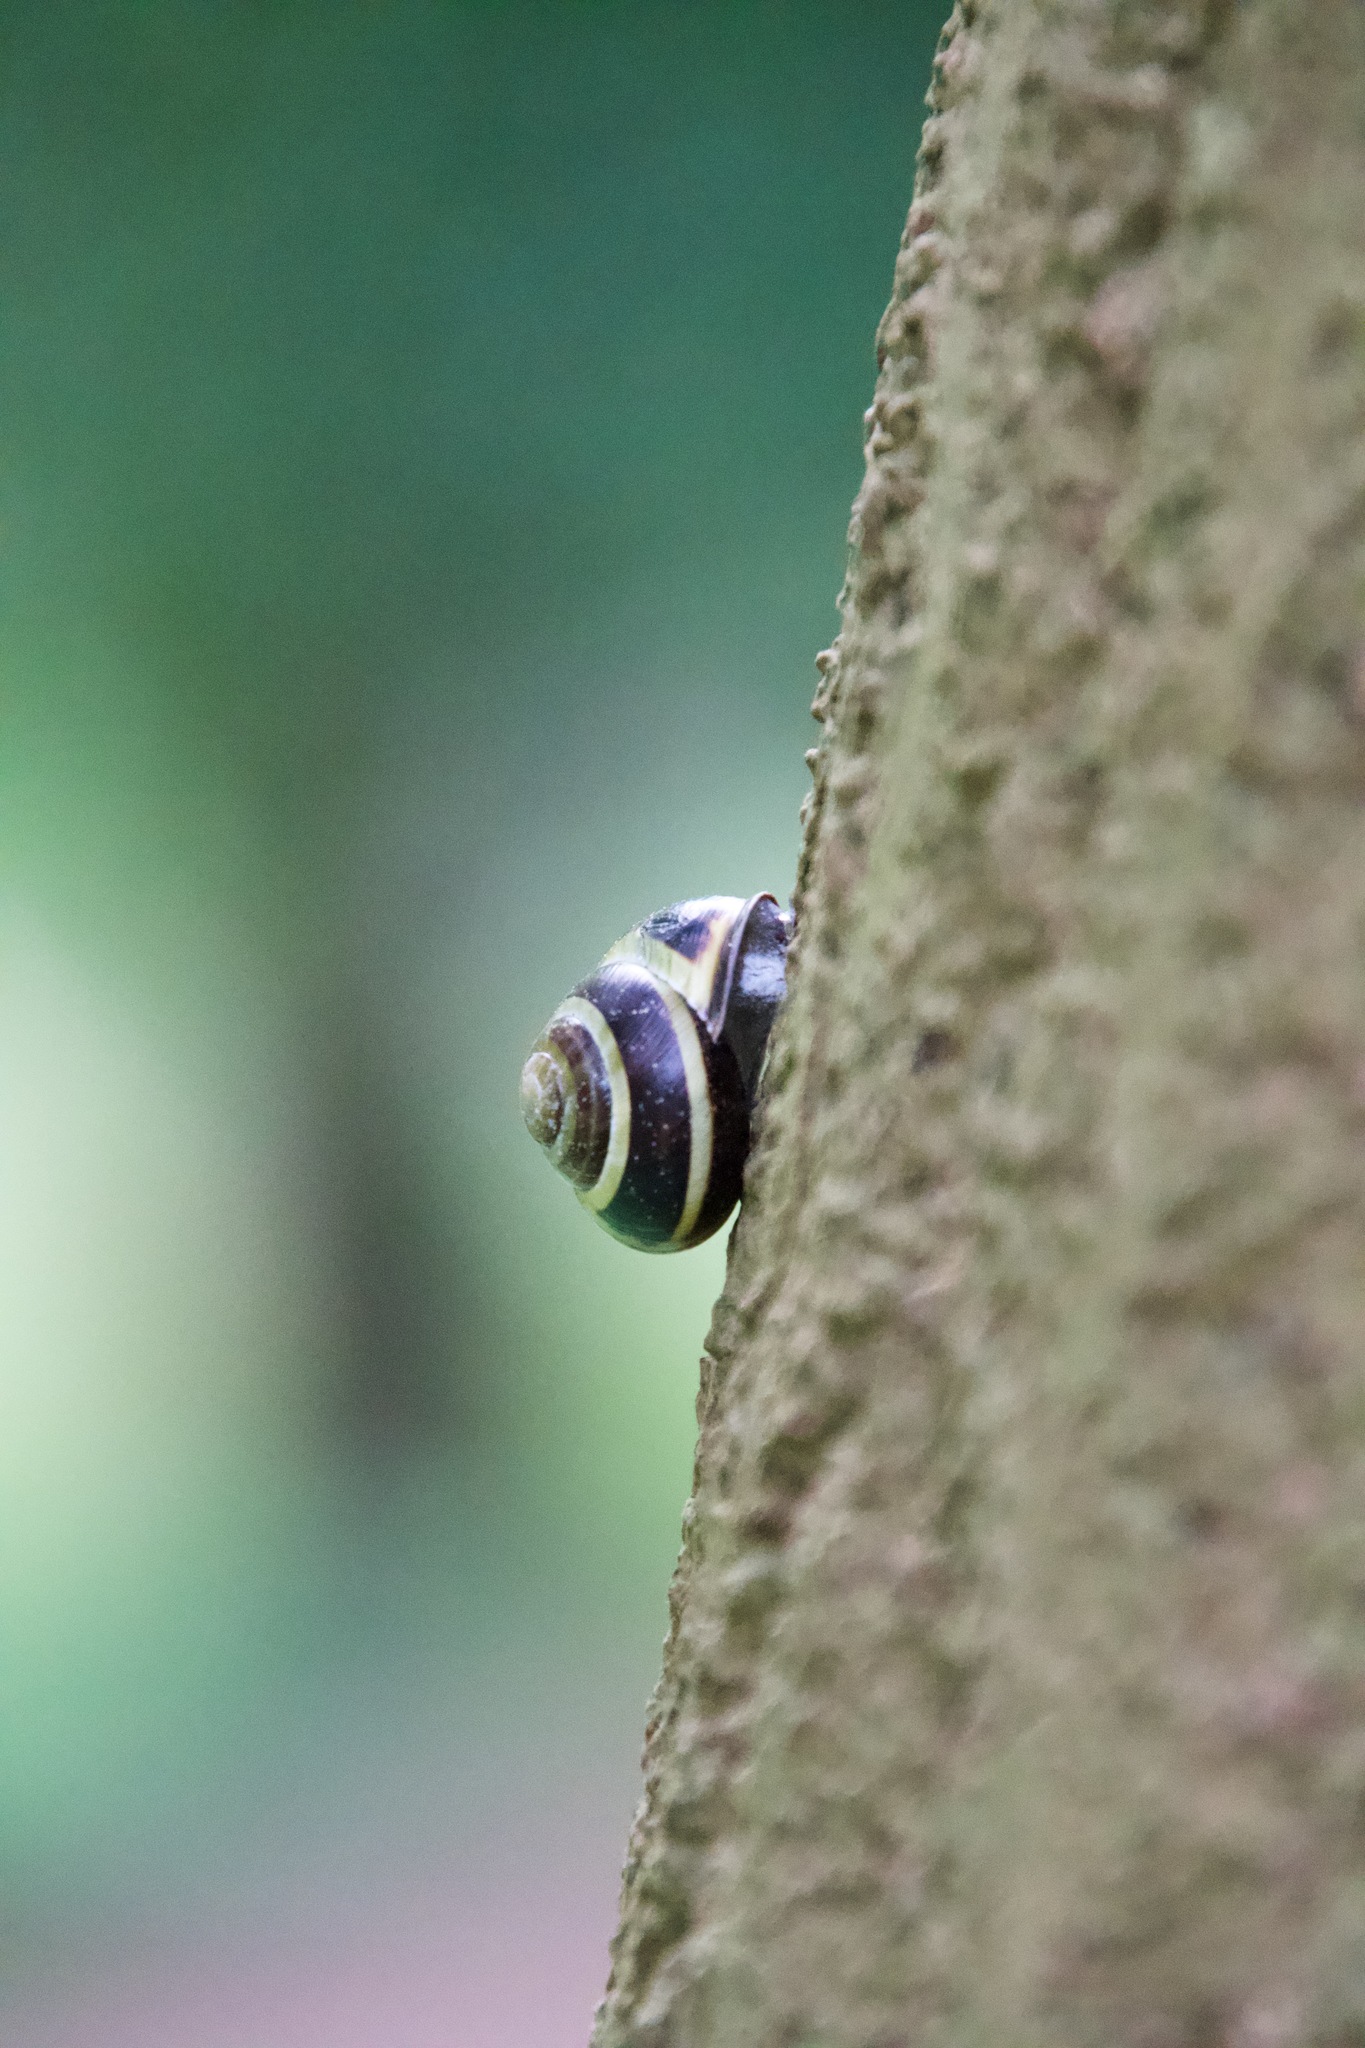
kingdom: Animalia
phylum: Mollusca
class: Gastropoda
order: Stylommatophora
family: Helicidae
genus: Cepaea
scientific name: Cepaea nemoralis
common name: Grovesnail
